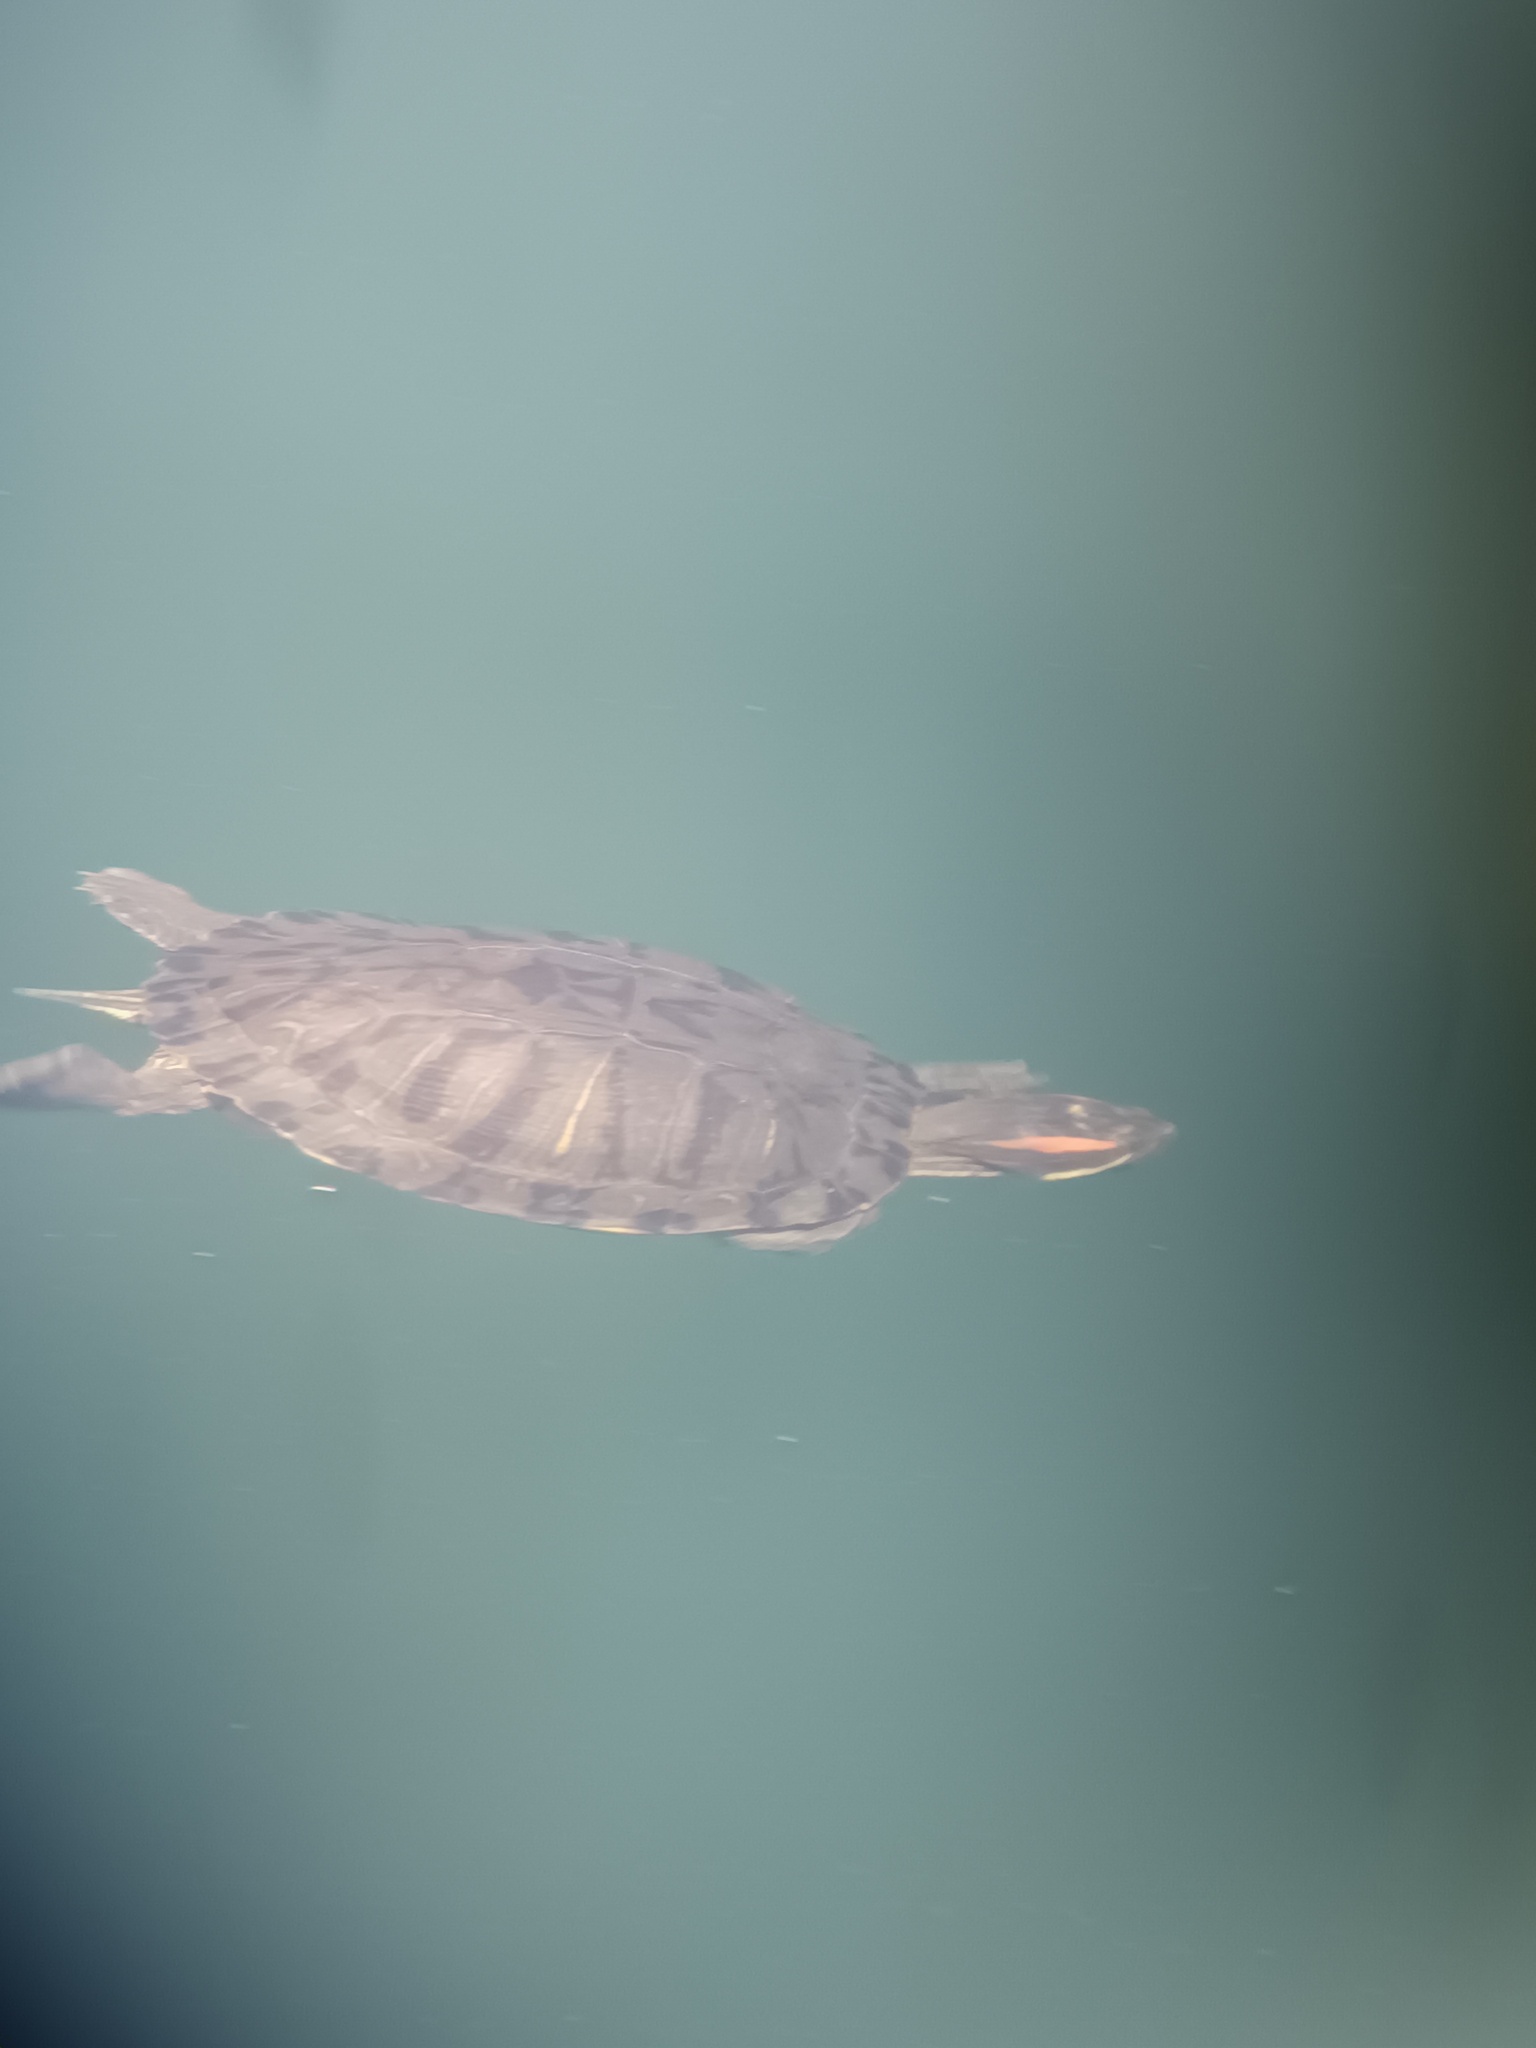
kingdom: Animalia
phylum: Chordata
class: Testudines
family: Emydidae
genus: Trachemys
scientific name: Trachemys scripta
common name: Slider
